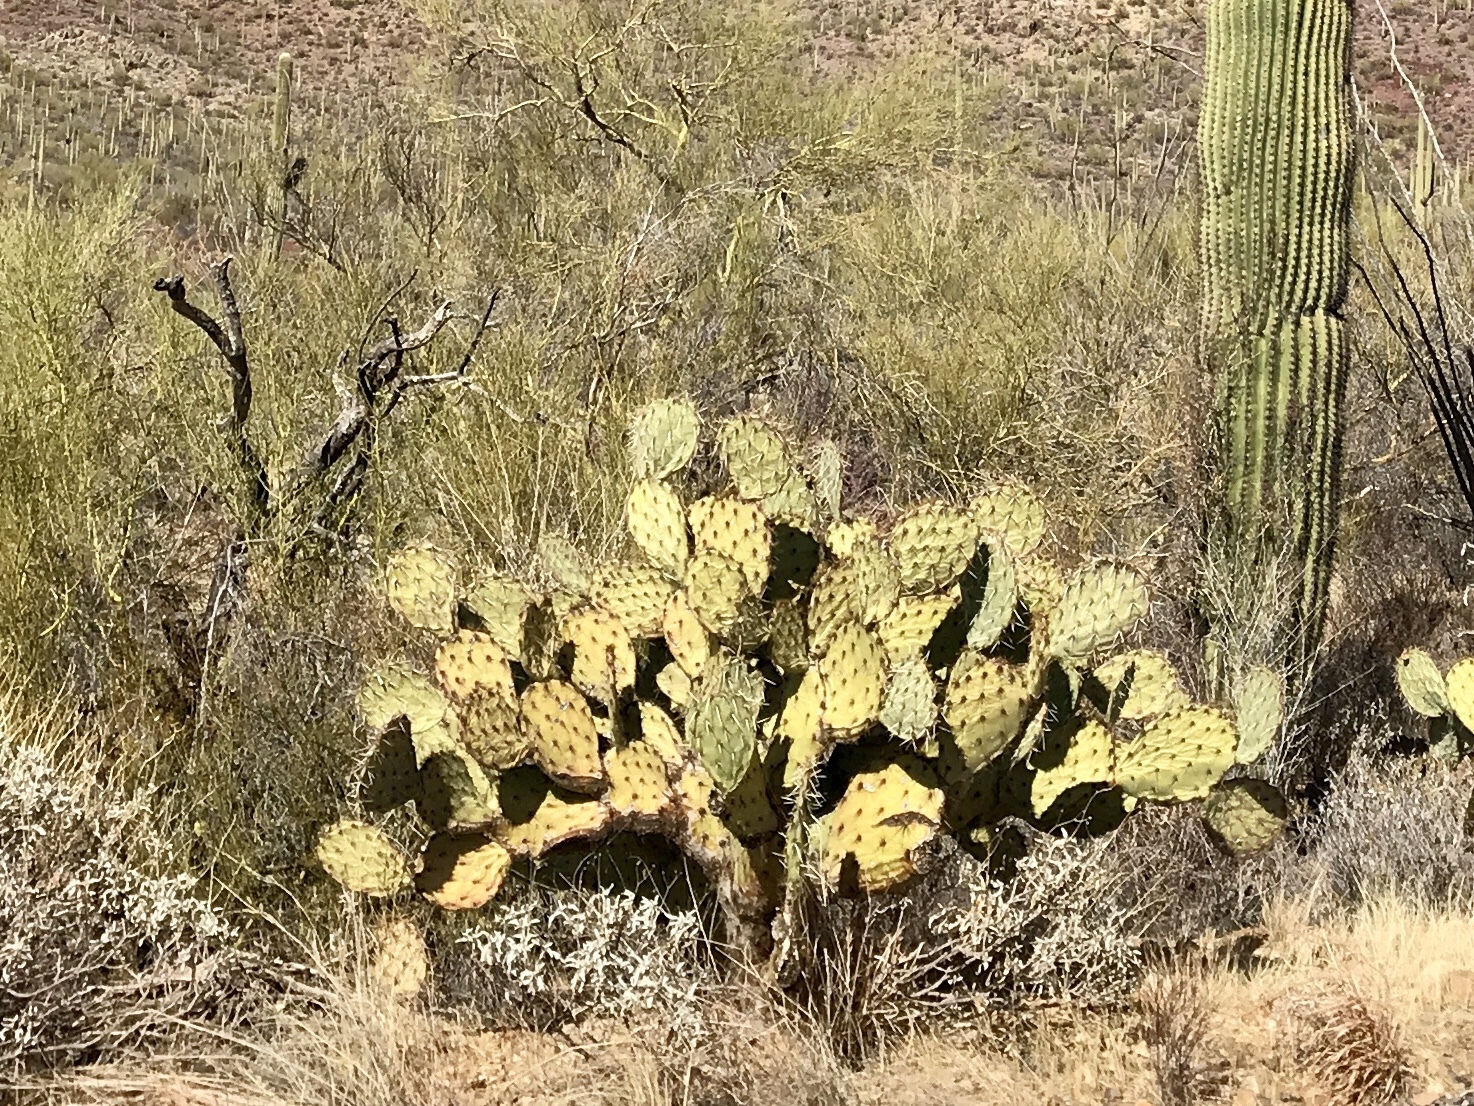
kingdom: Plantae
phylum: Tracheophyta
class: Magnoliopsida
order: Caryophyllales
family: Cactaceae
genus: Opuntia
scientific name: Opuntia rufida
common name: Blind pricklypear
